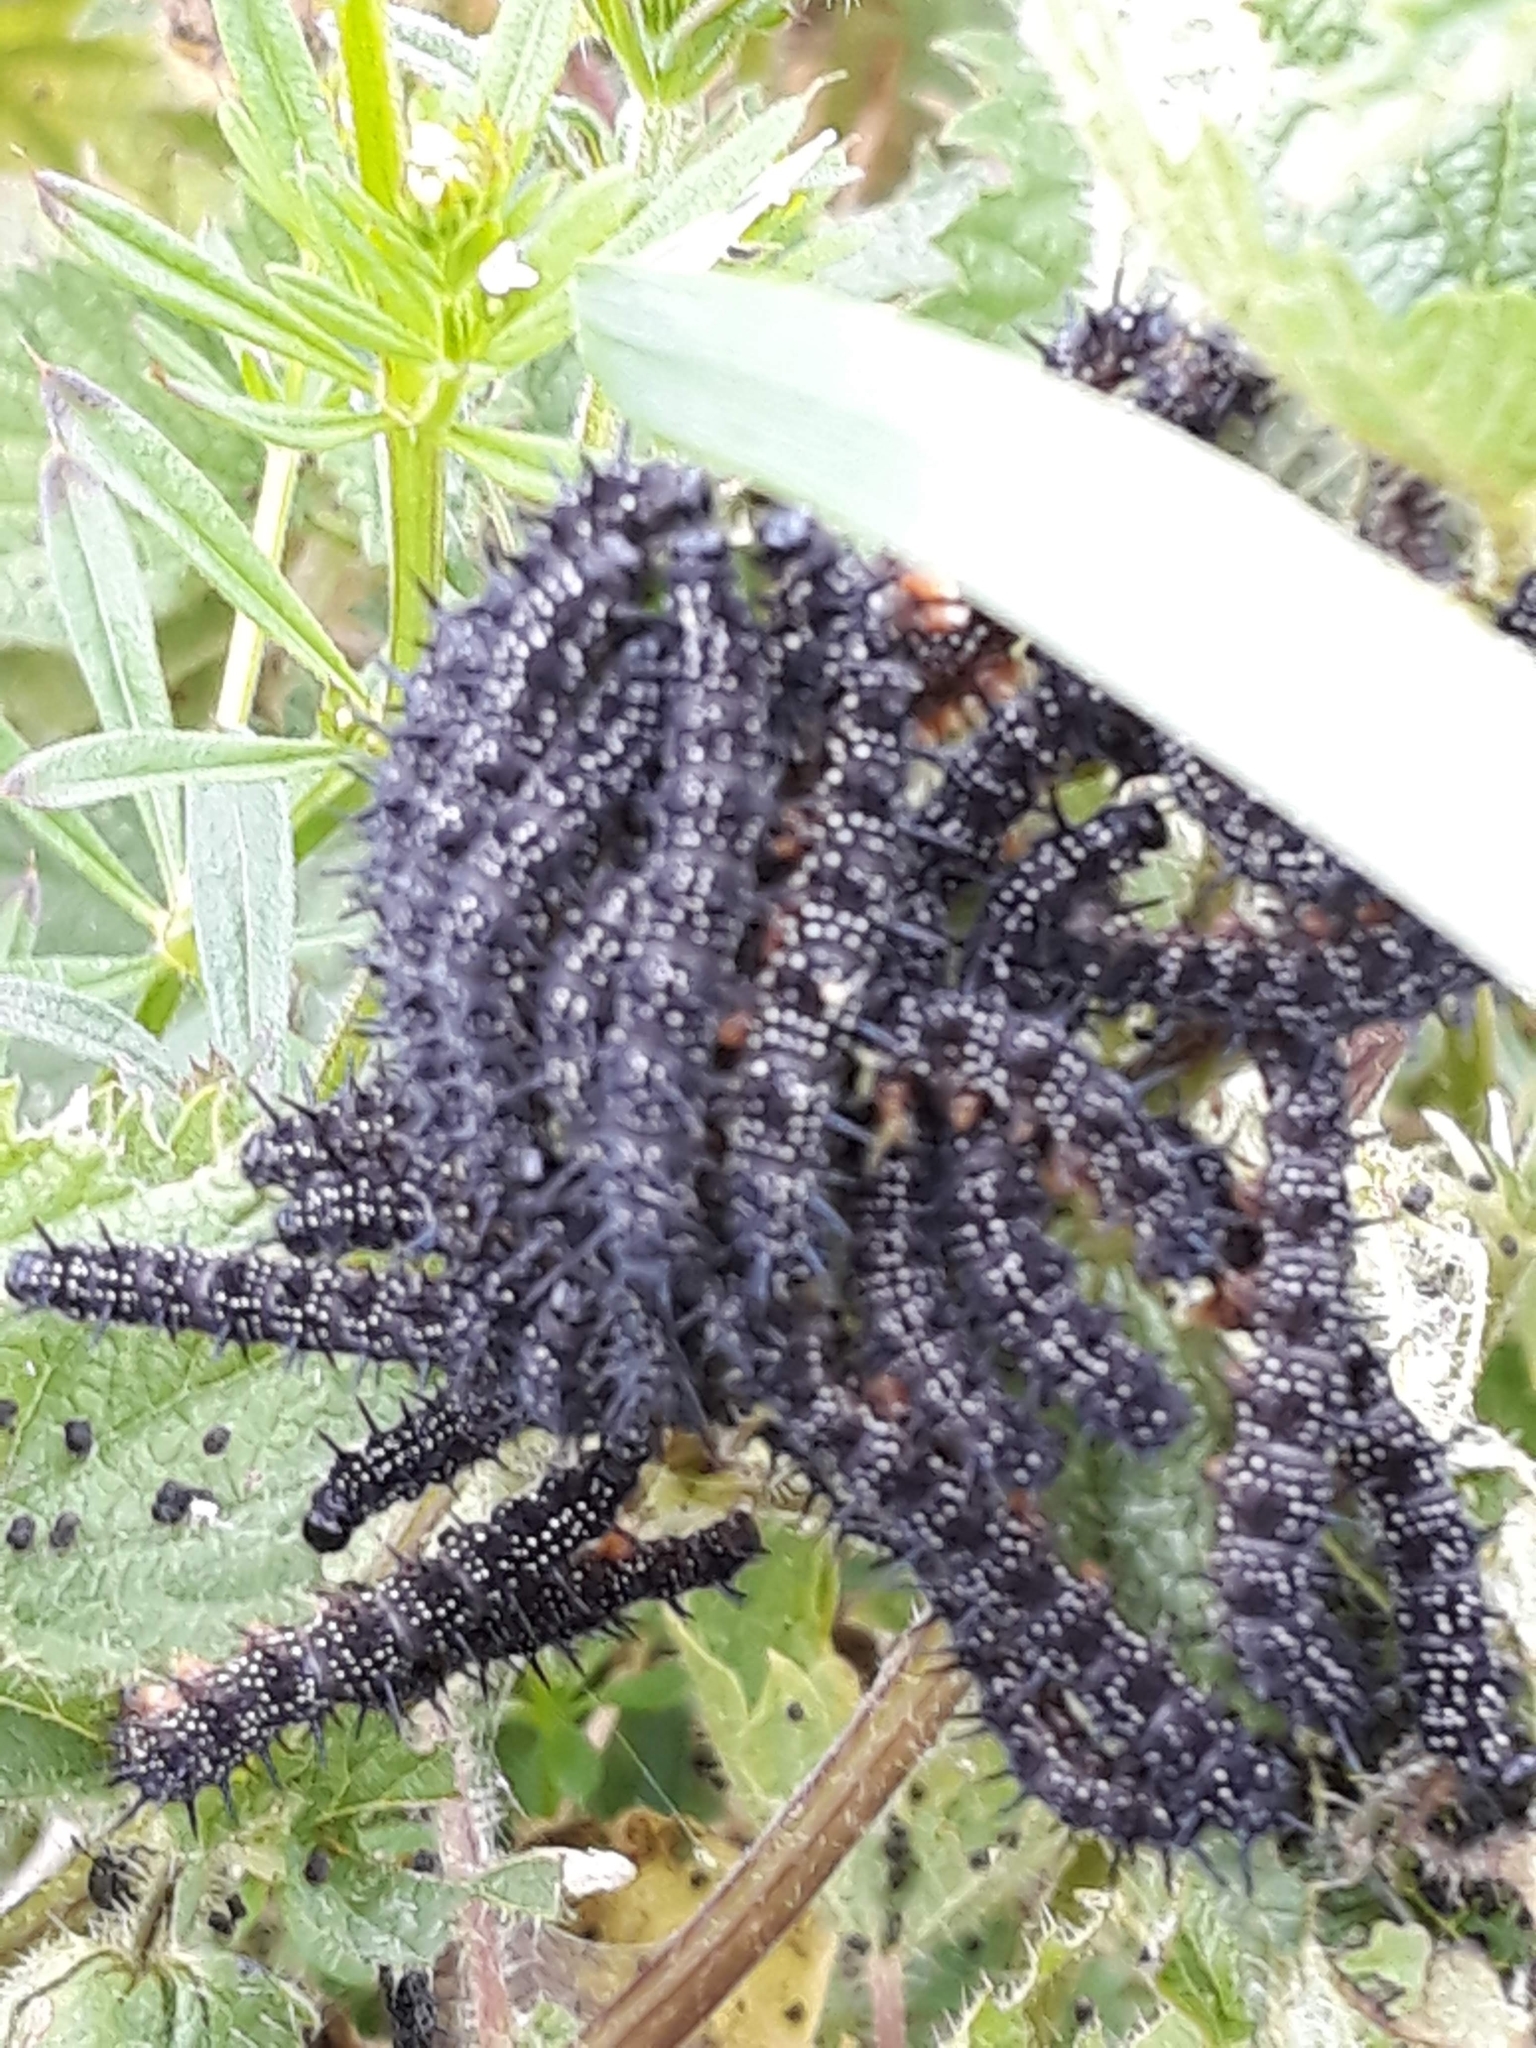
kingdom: Animalia
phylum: Arthropoda
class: Insecta
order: Lepidoptera
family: Nymphalidae
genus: Aglais
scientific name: Aglais io
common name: Peacock
